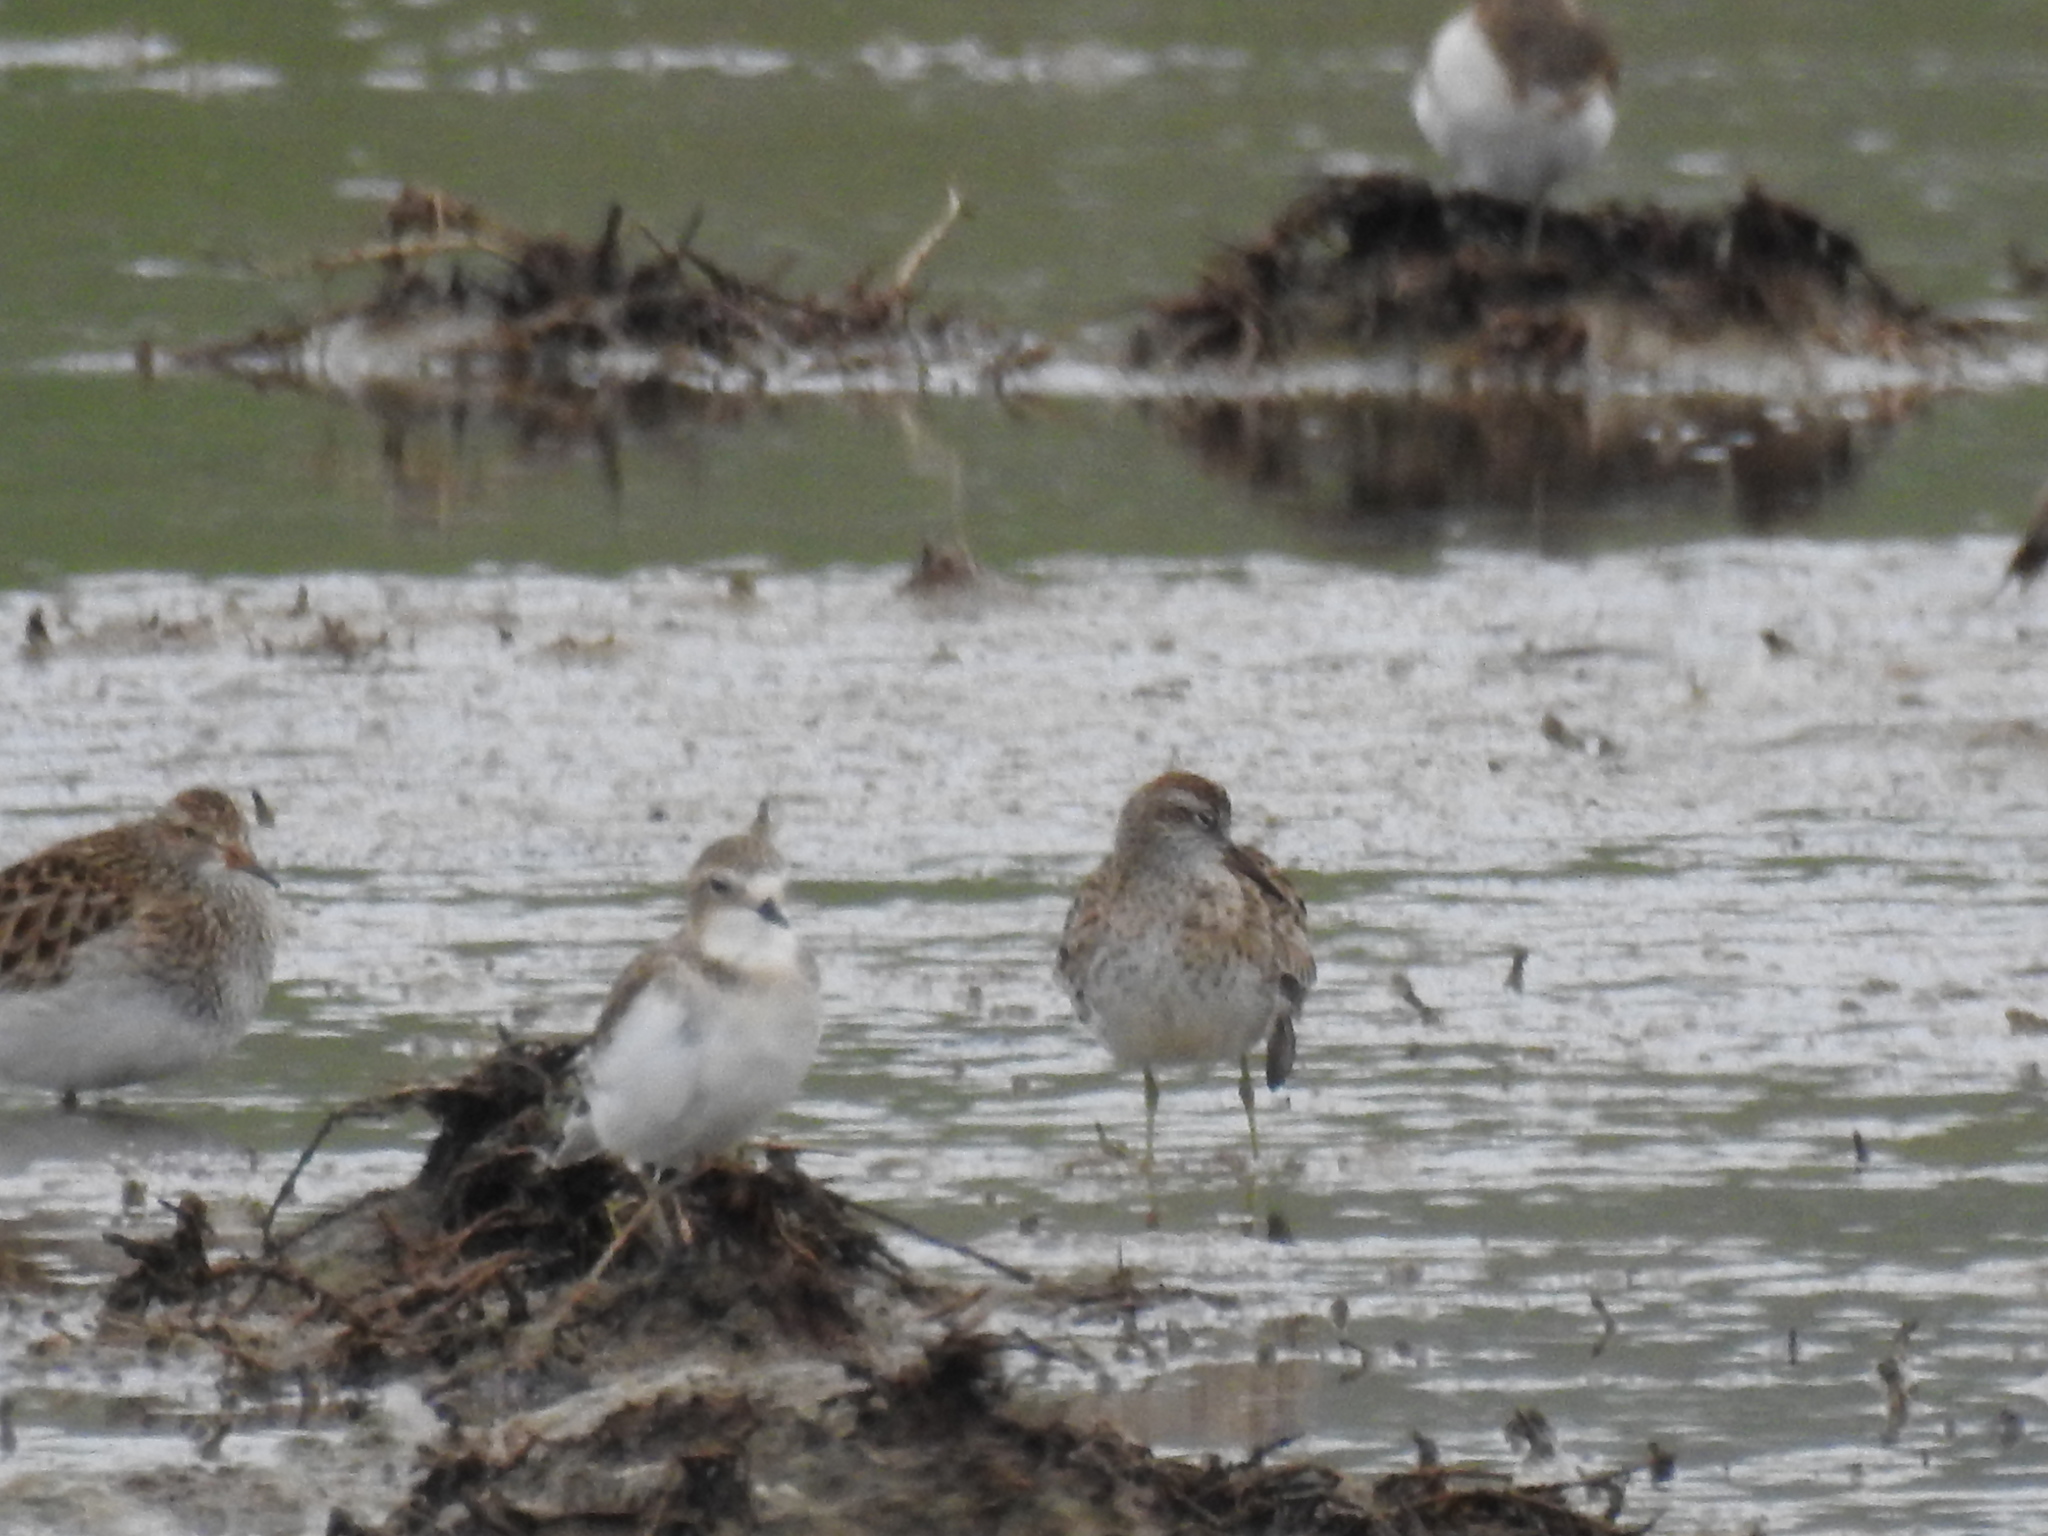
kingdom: Animalia
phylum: Chordata
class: Aves
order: Charadriiformes
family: Scolopacidae
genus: Calidris
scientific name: Calidris melanotos
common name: Pectoral sandpiper
